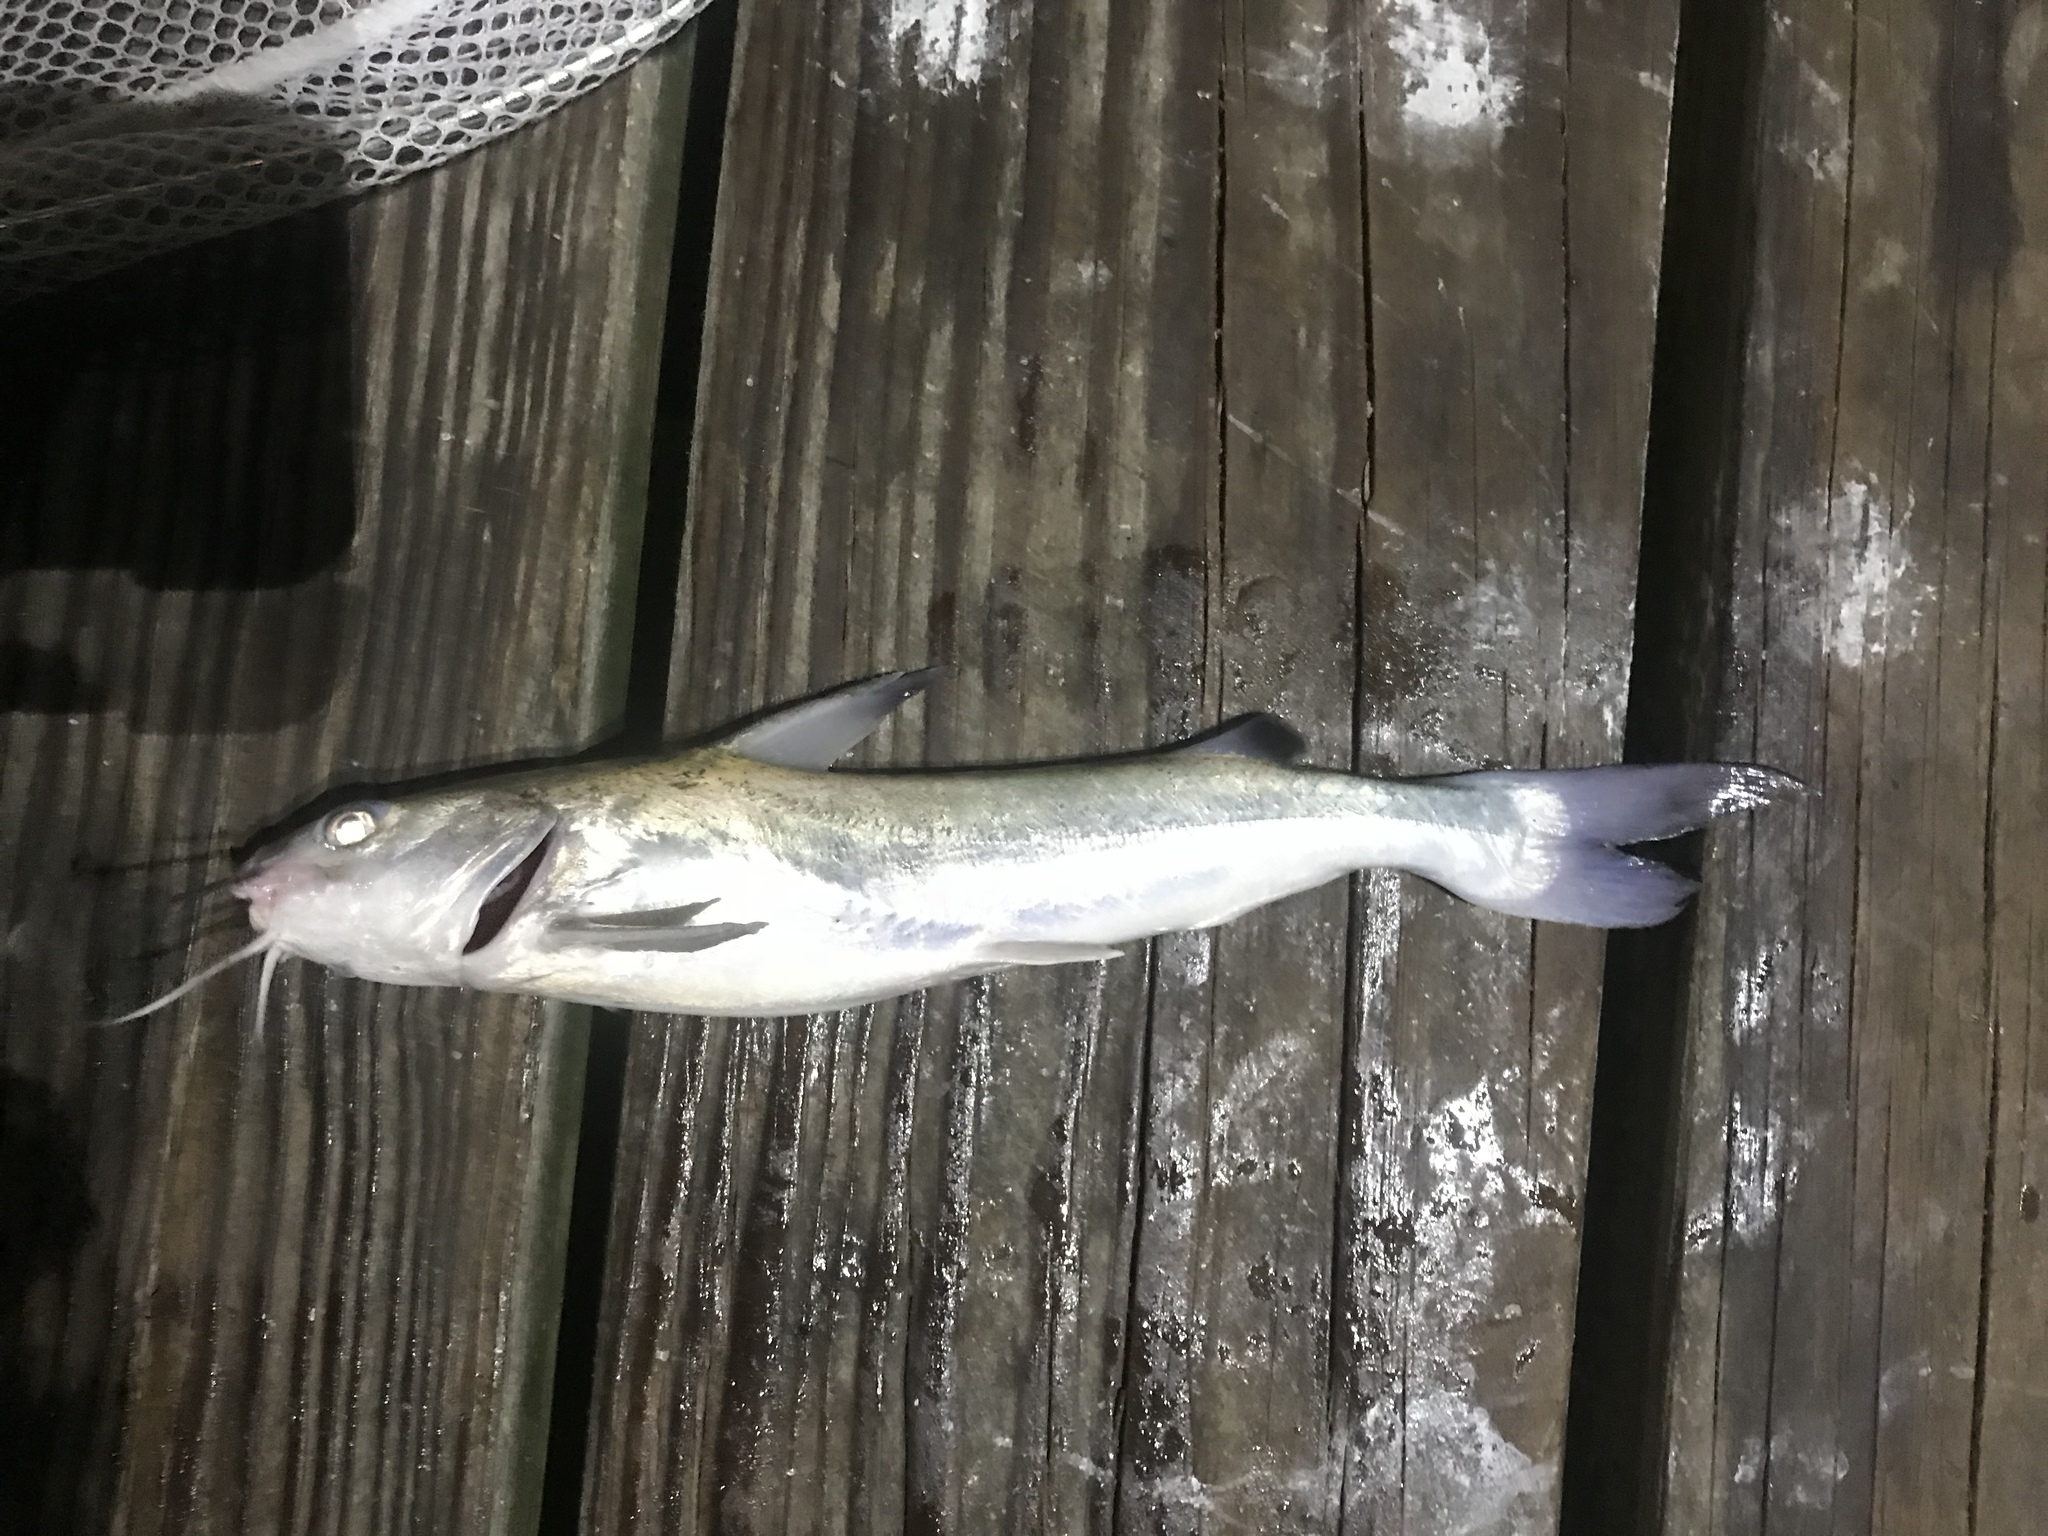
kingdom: Animalia
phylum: Chordata
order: Siluriformes
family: Ariidae
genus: Ariopsis
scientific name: Ariopsis felis
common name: Hardhead catfish
